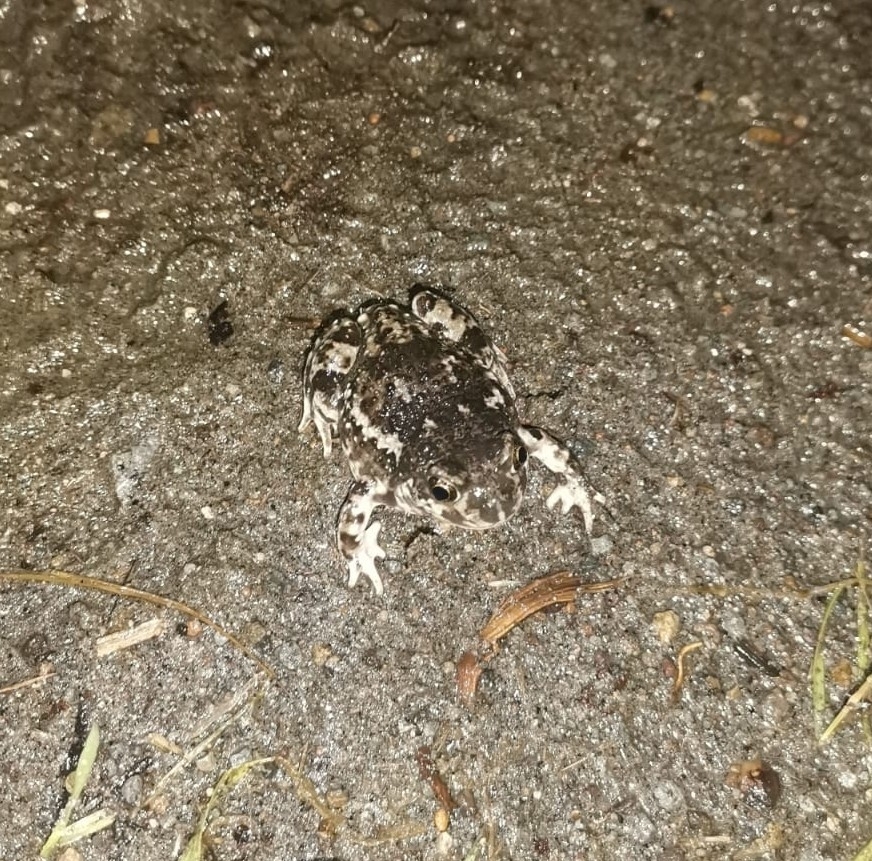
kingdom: Animalia
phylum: Chordata
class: Amphibia
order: Anura
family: Scaphiopodidae
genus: Spea
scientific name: Spea multiplicata
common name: Mexican spadefoot
